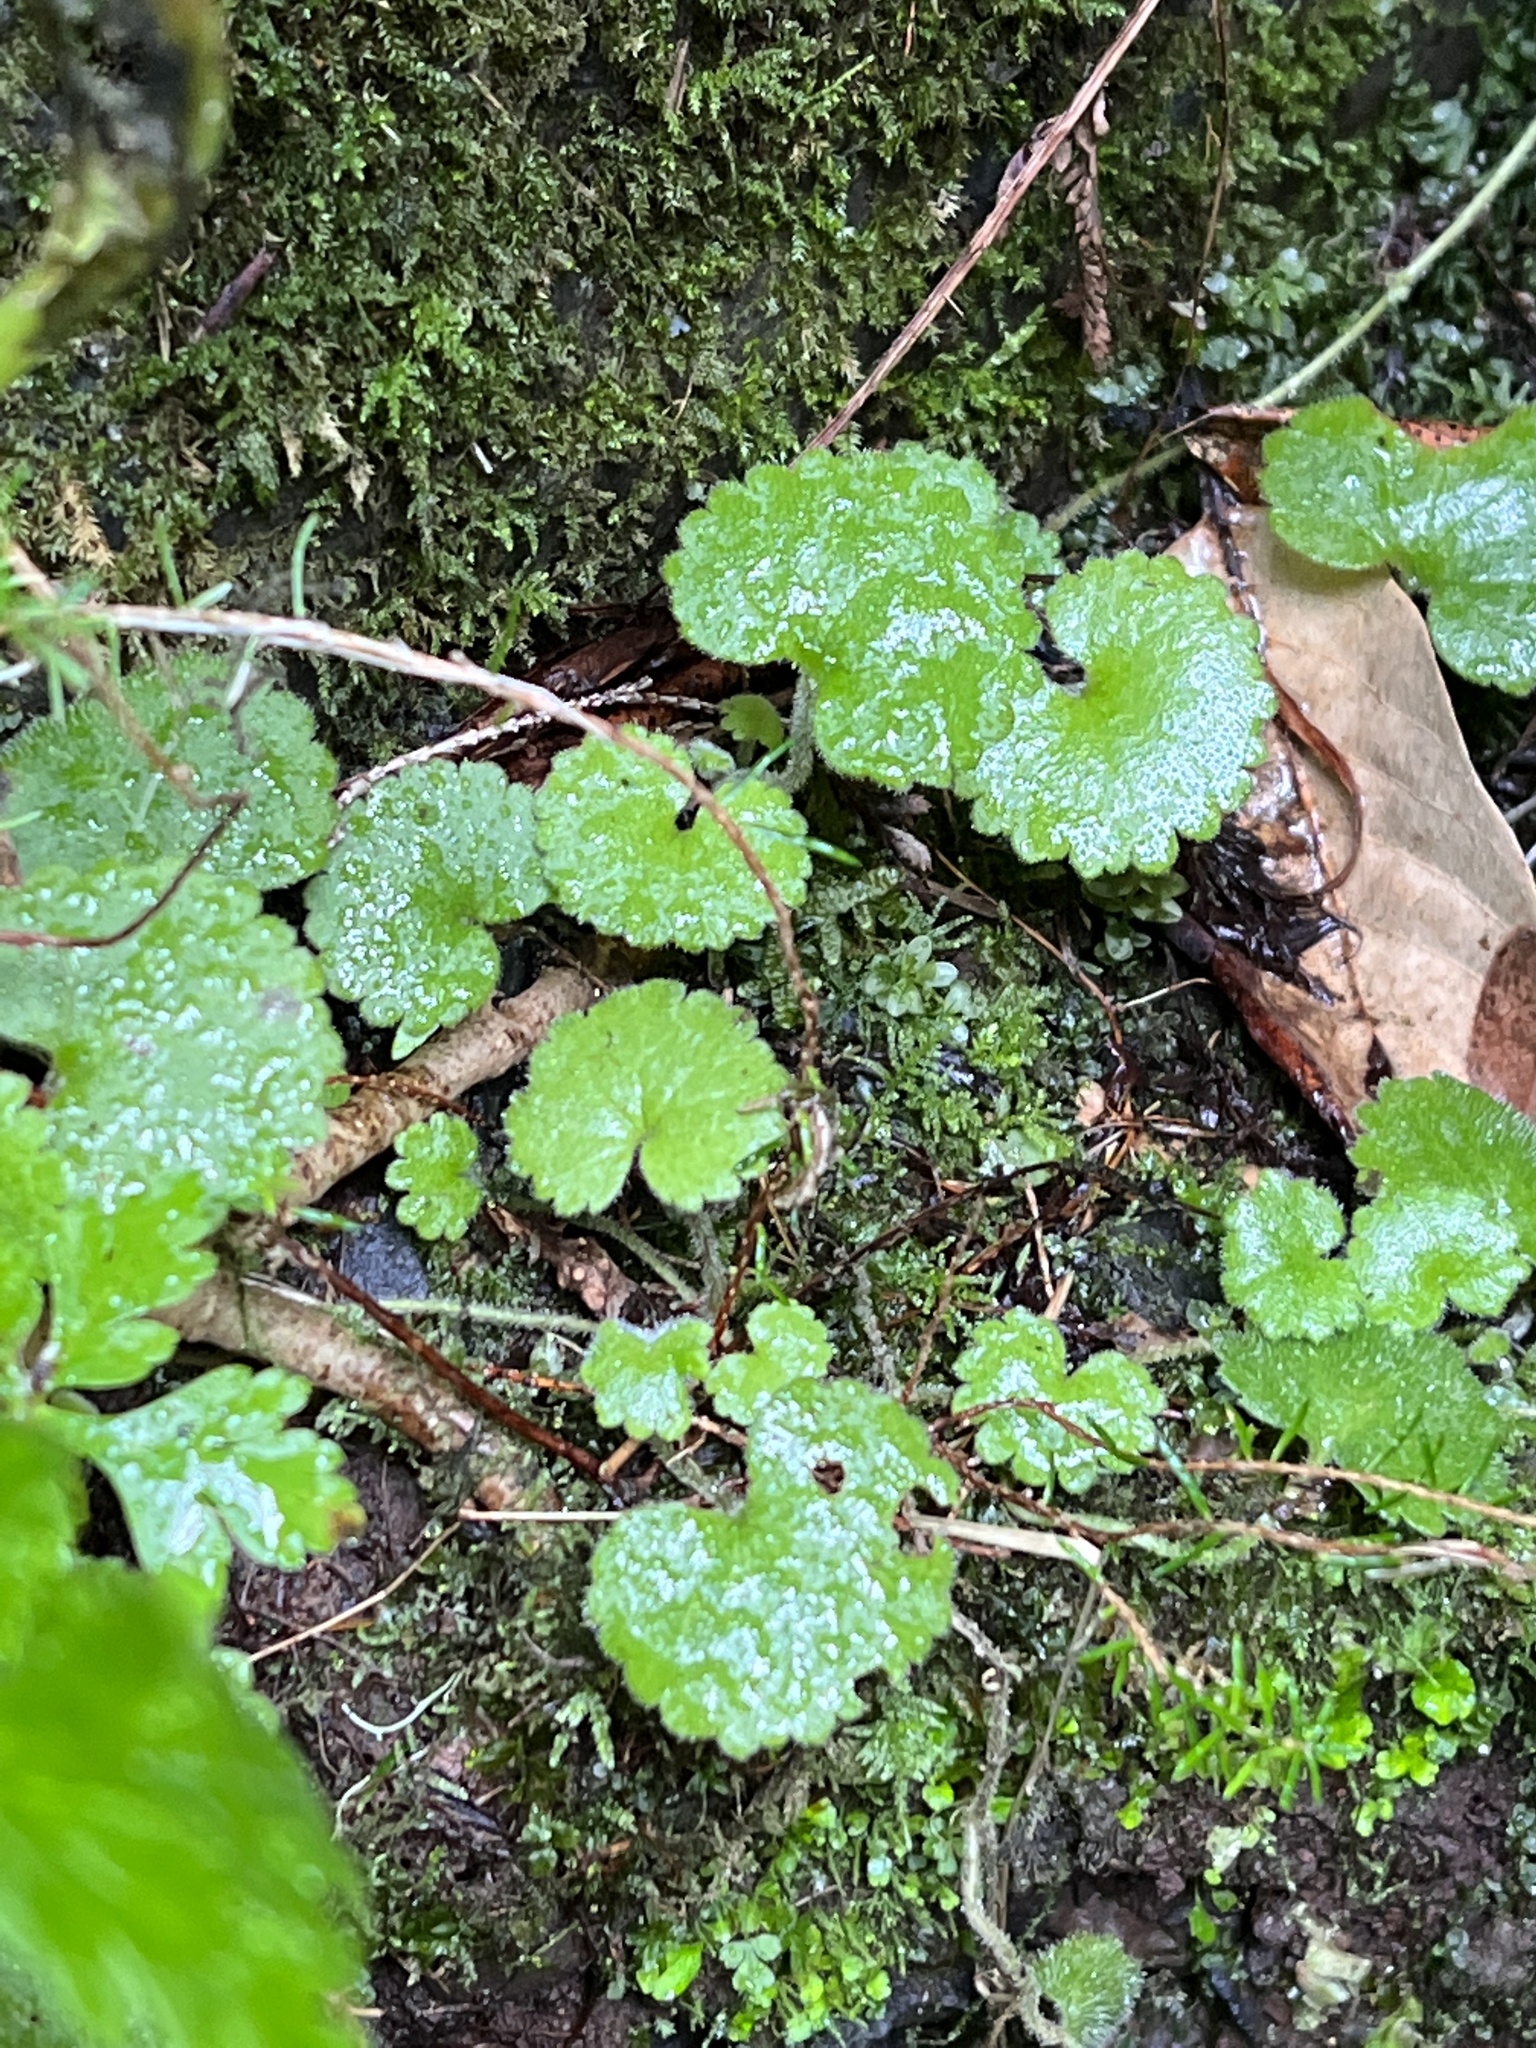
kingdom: Plantae
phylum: Tracheophyta
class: Magnoliopsida
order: Lamiales
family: Plantaginaceae
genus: Sibthorpia
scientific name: Sibthorpia peregrina
